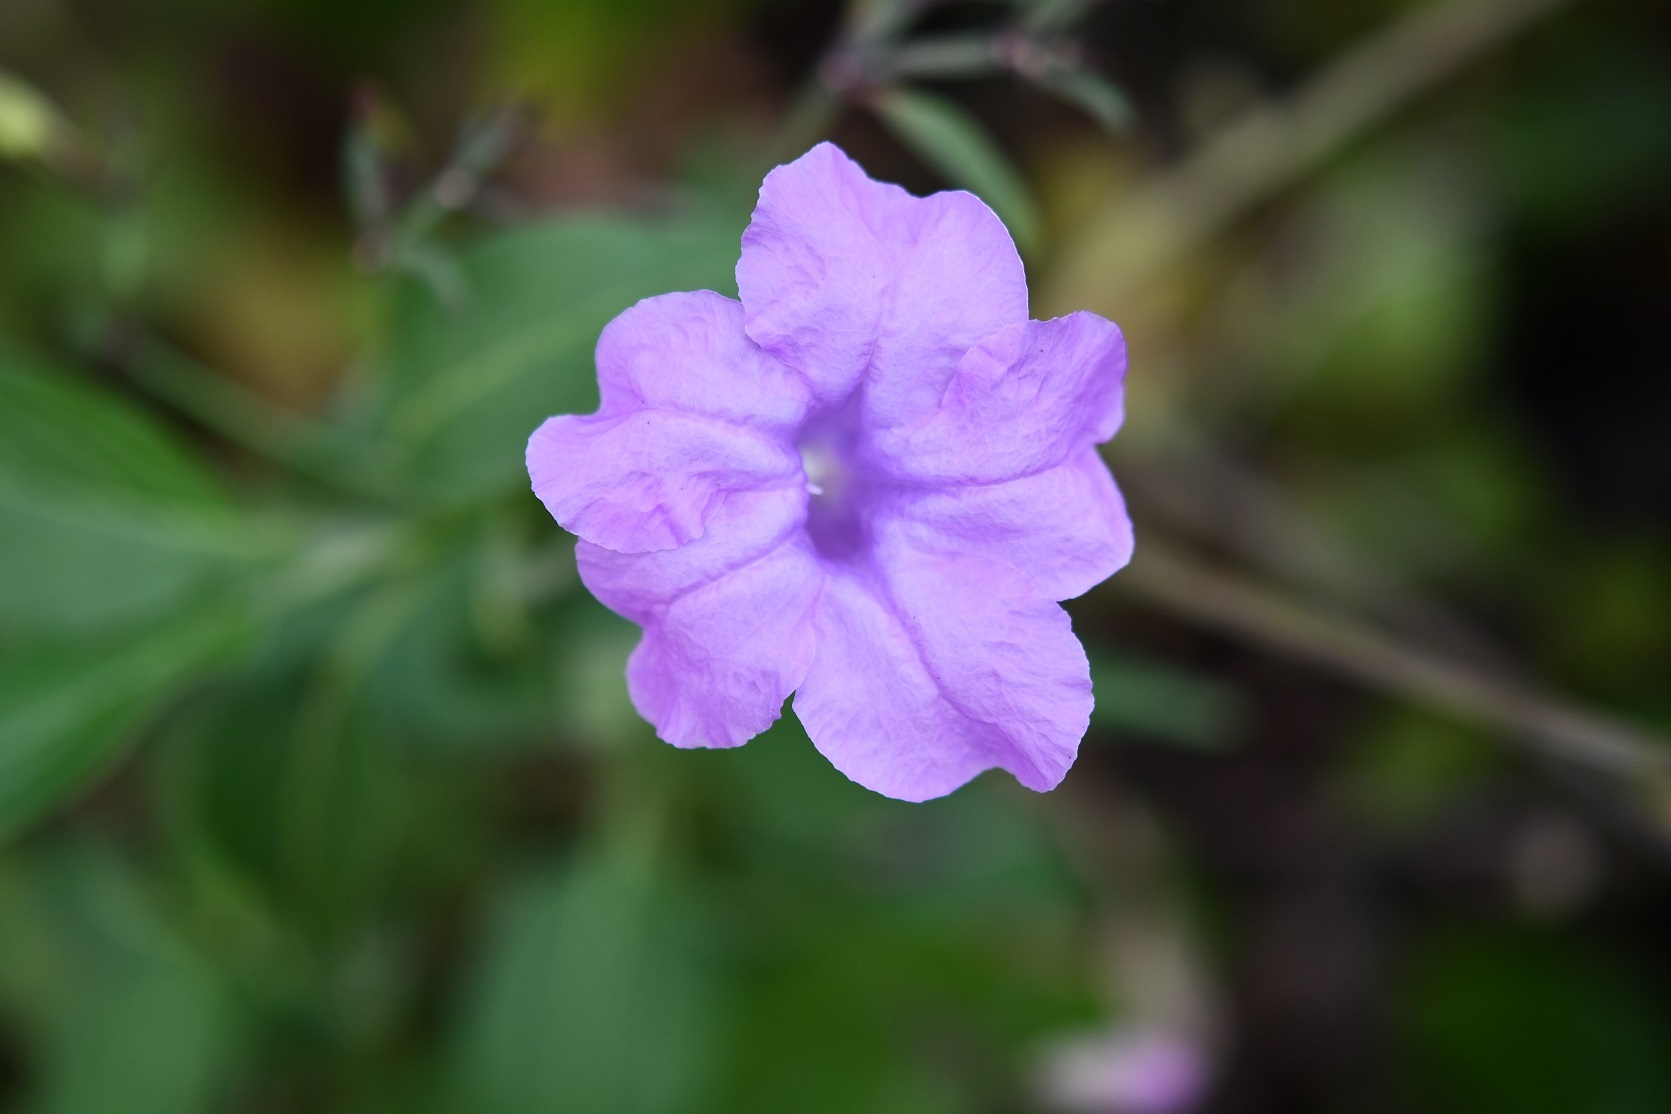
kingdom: Plantae
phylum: Tracheophyta
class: Magnoliopsida
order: Lamiales
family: Acanthaceae
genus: Ruellia
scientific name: Ruellia breedlovei
